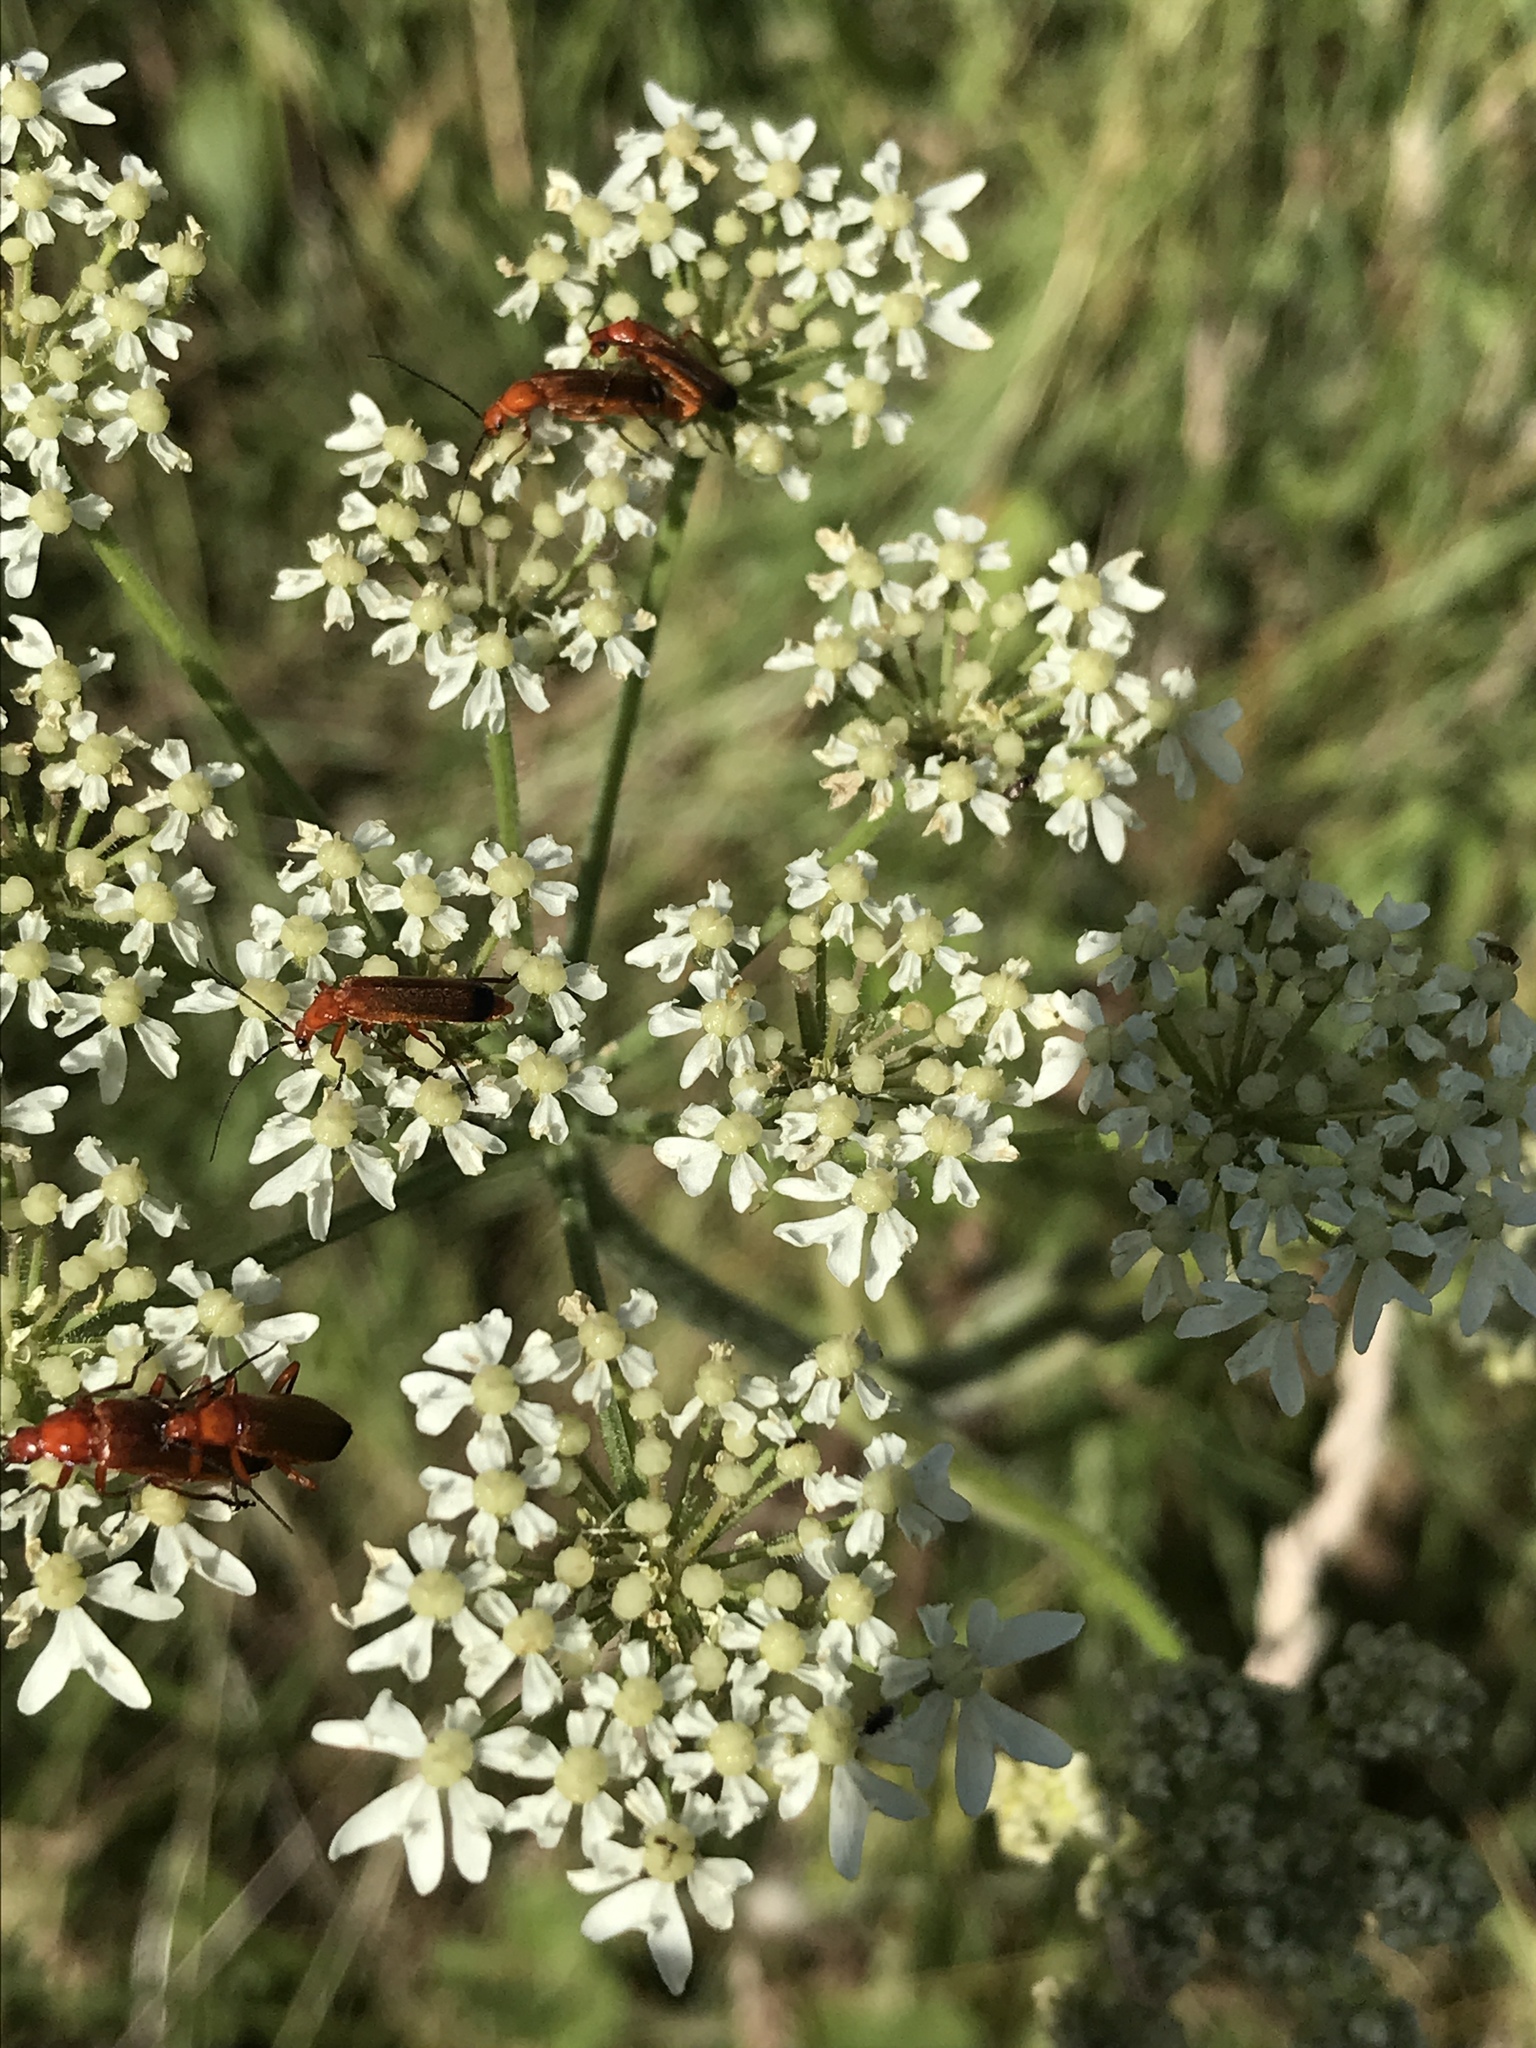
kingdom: Animalia
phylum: Arthropoda
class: Insecta
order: Coleoptera
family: Cantharidae
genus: Rhagonycha
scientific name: Rhagonycha fulva
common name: Common red soldier beetle
